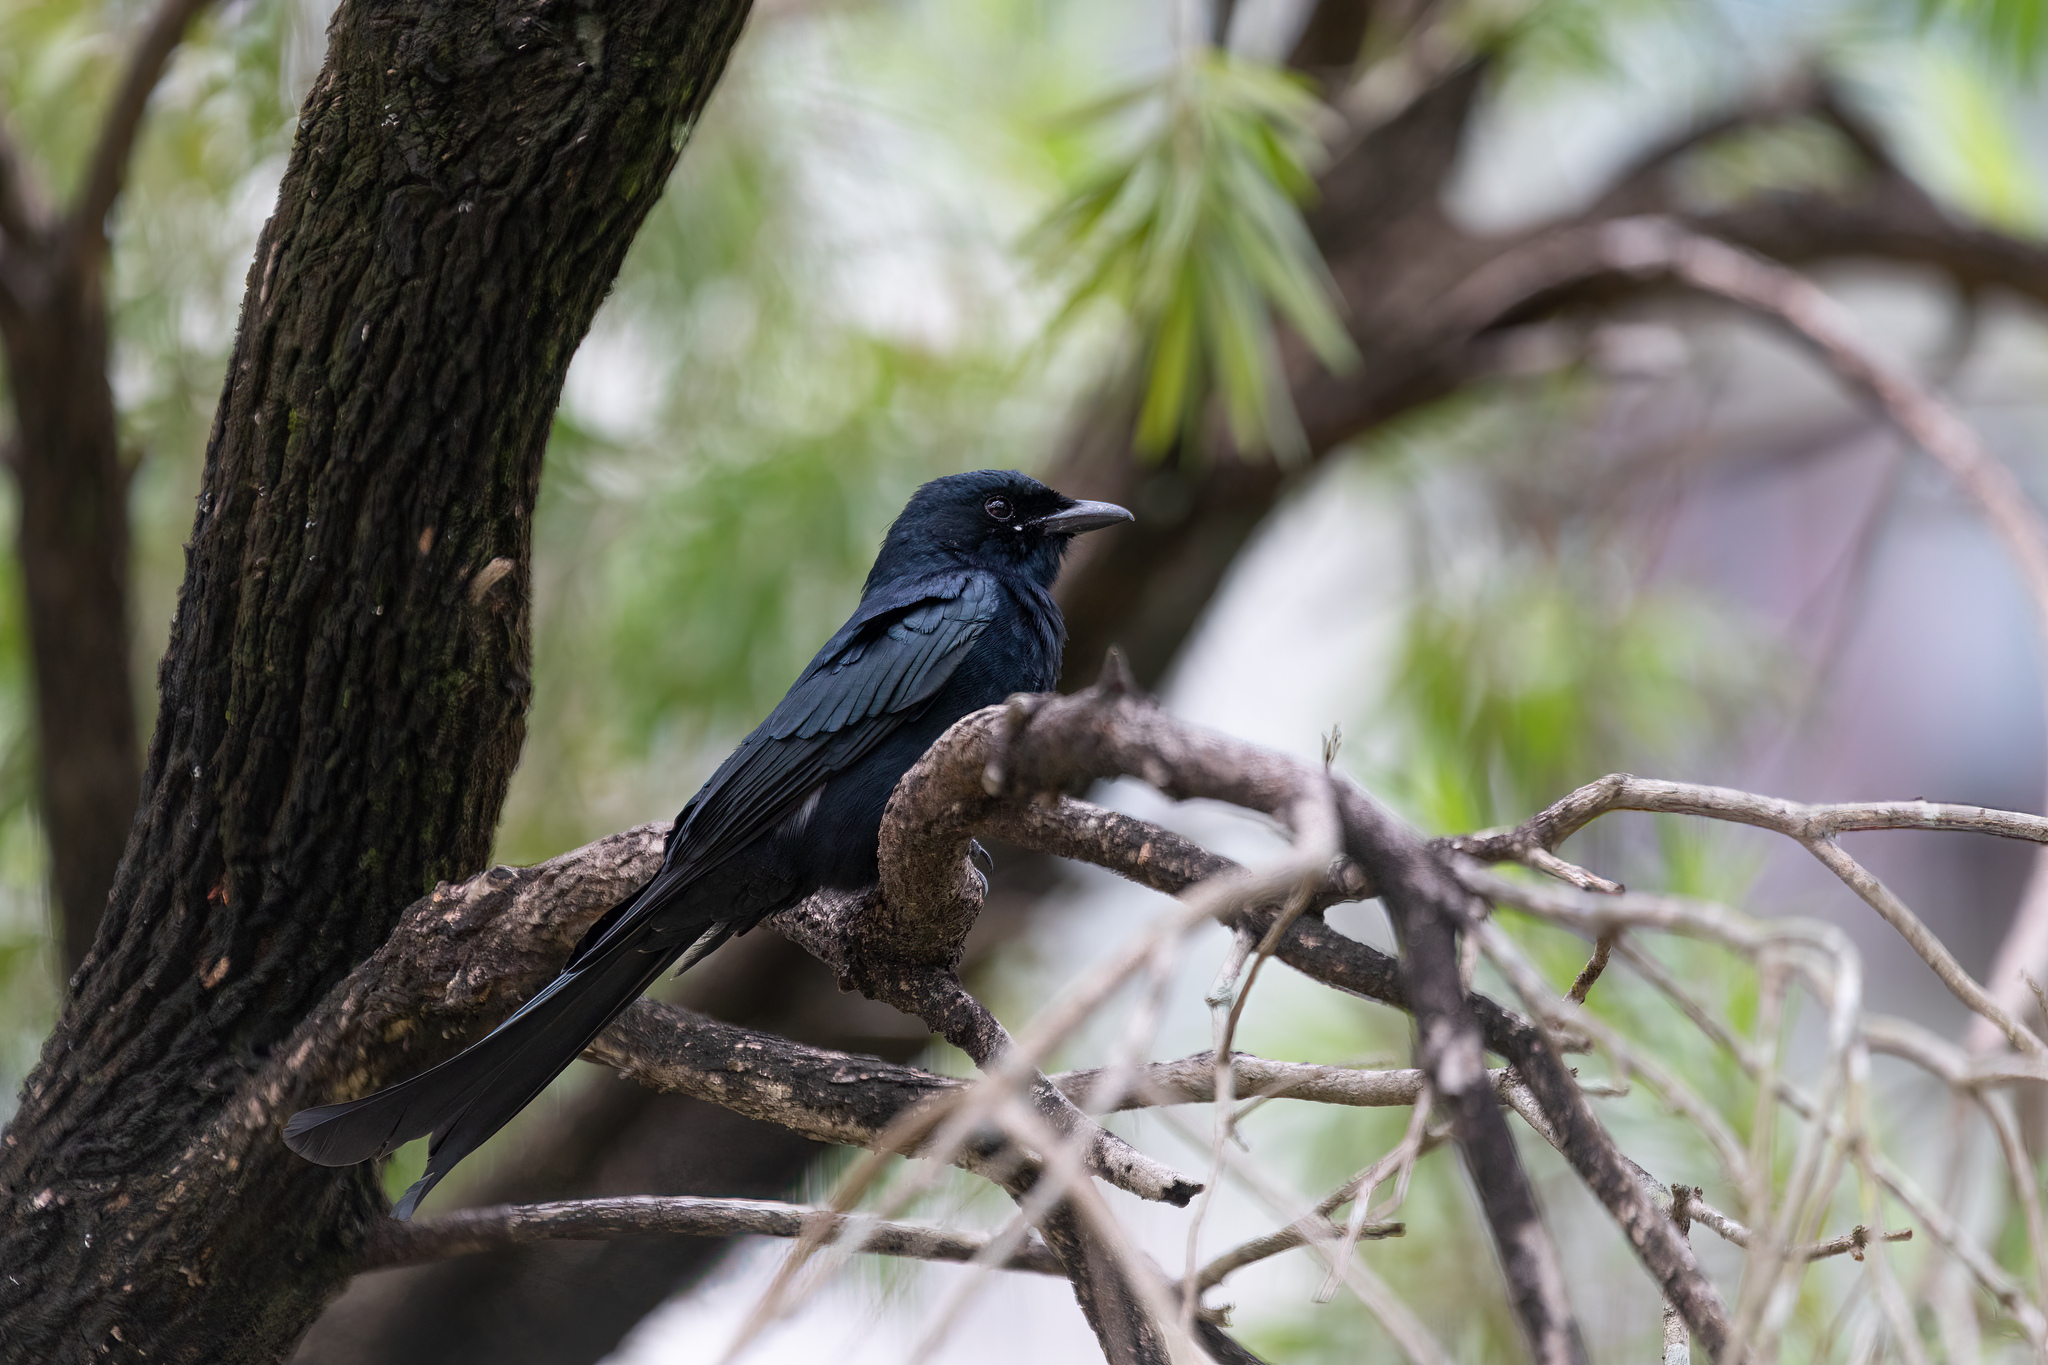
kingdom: Animalia
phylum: Chordata
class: Aves
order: Passeriformes
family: Dicruridae
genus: Dicrurus
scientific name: Dicrurus macrocercus
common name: Black drongo
